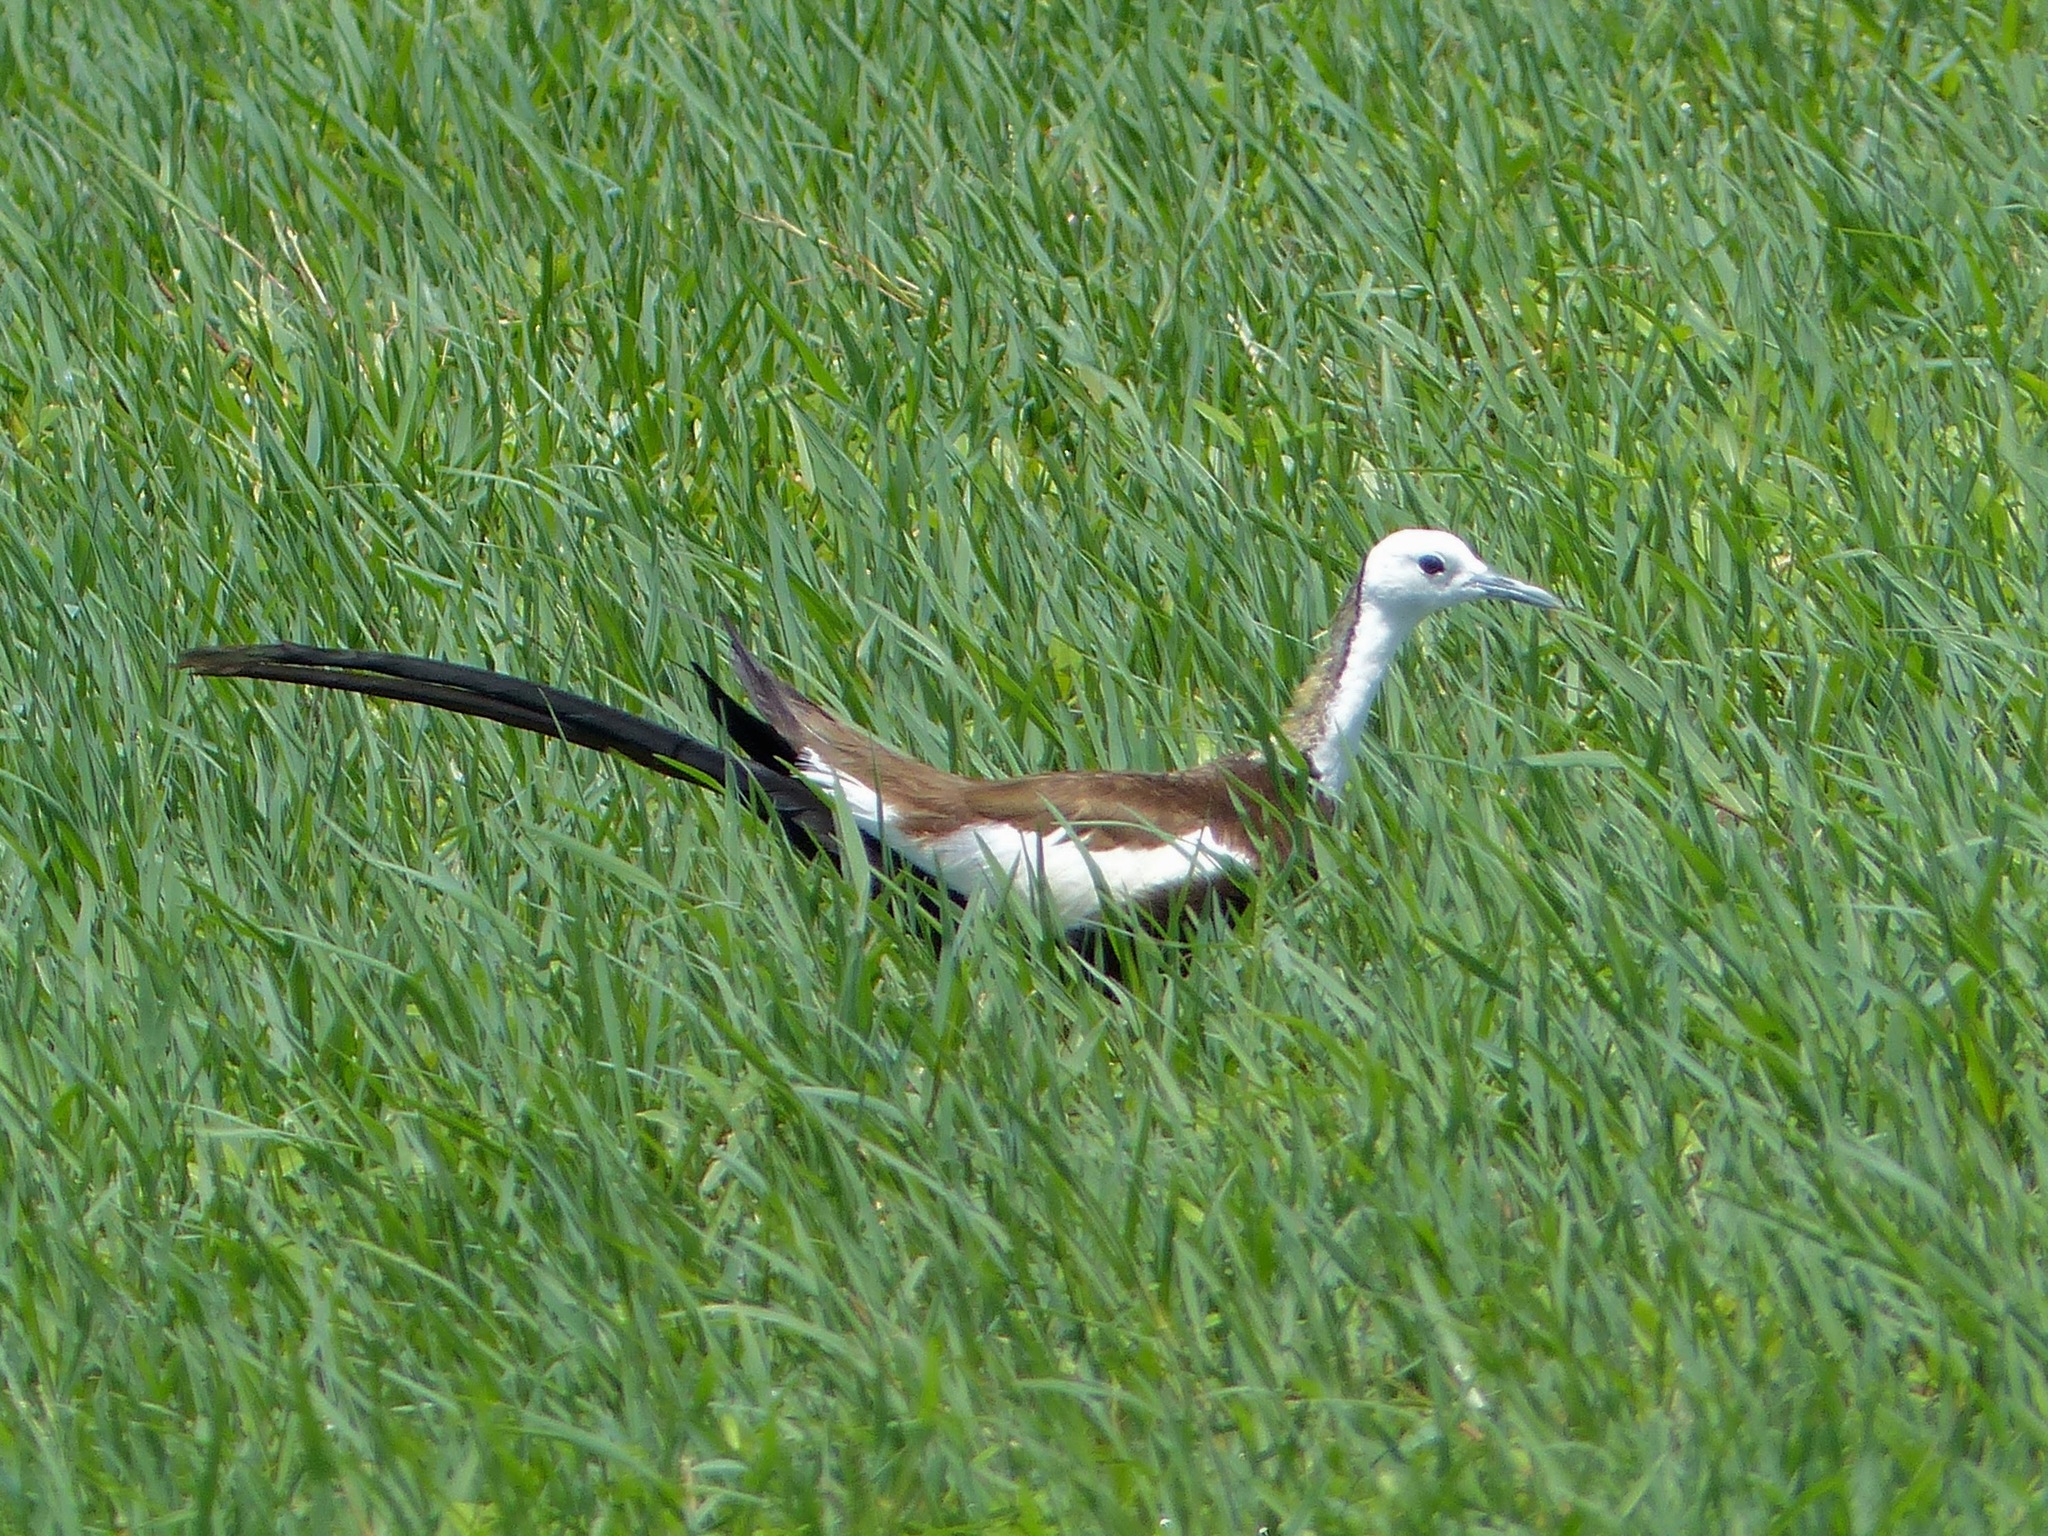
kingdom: Animalia
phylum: Chordata
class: Aves
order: Charadriiformes
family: Jacanidae
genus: Hydrophasianus
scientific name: Hydrophasianus chirurgus
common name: Pheasant-tailed jacana
